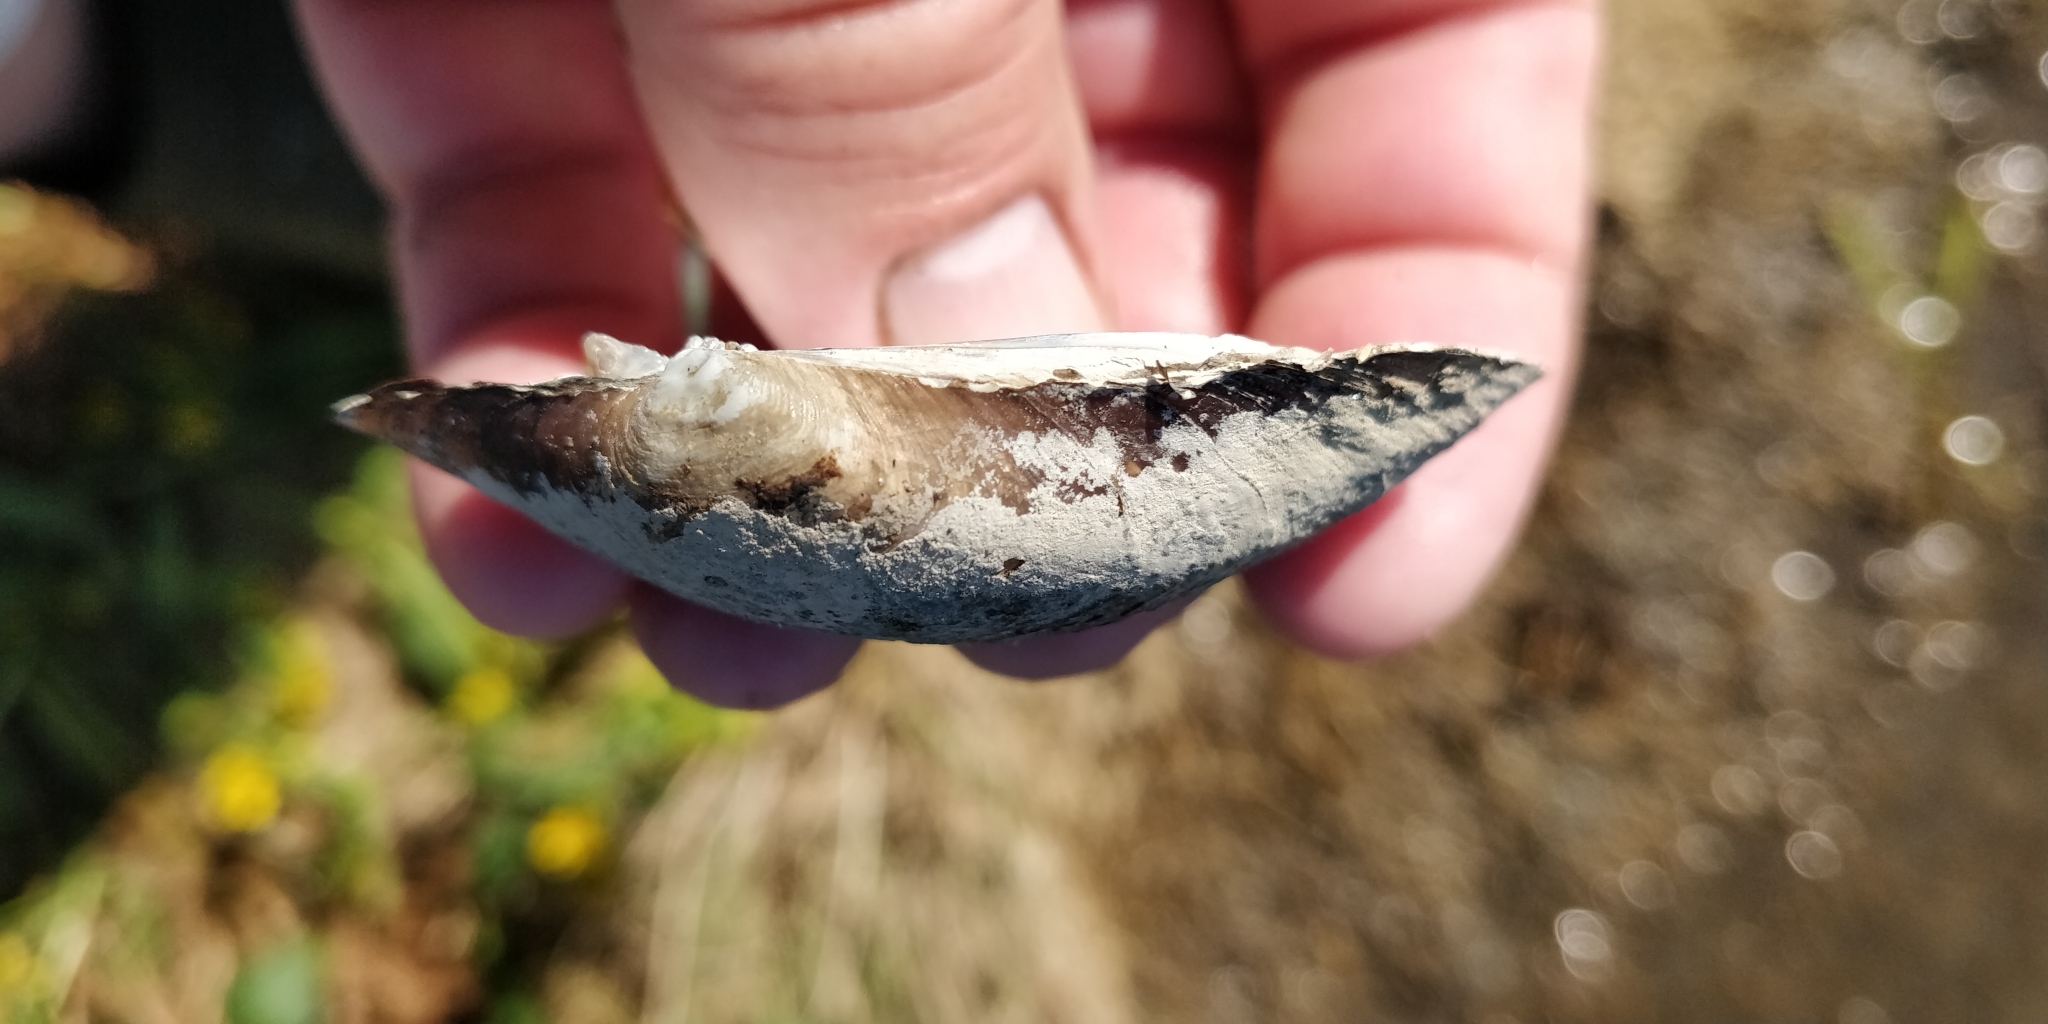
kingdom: Animalia
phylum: Mollusca
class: Bivalvia
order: Unionida
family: Unionidae
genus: Lampsilis
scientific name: Lampsilis cardium
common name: Plain pocketbook
